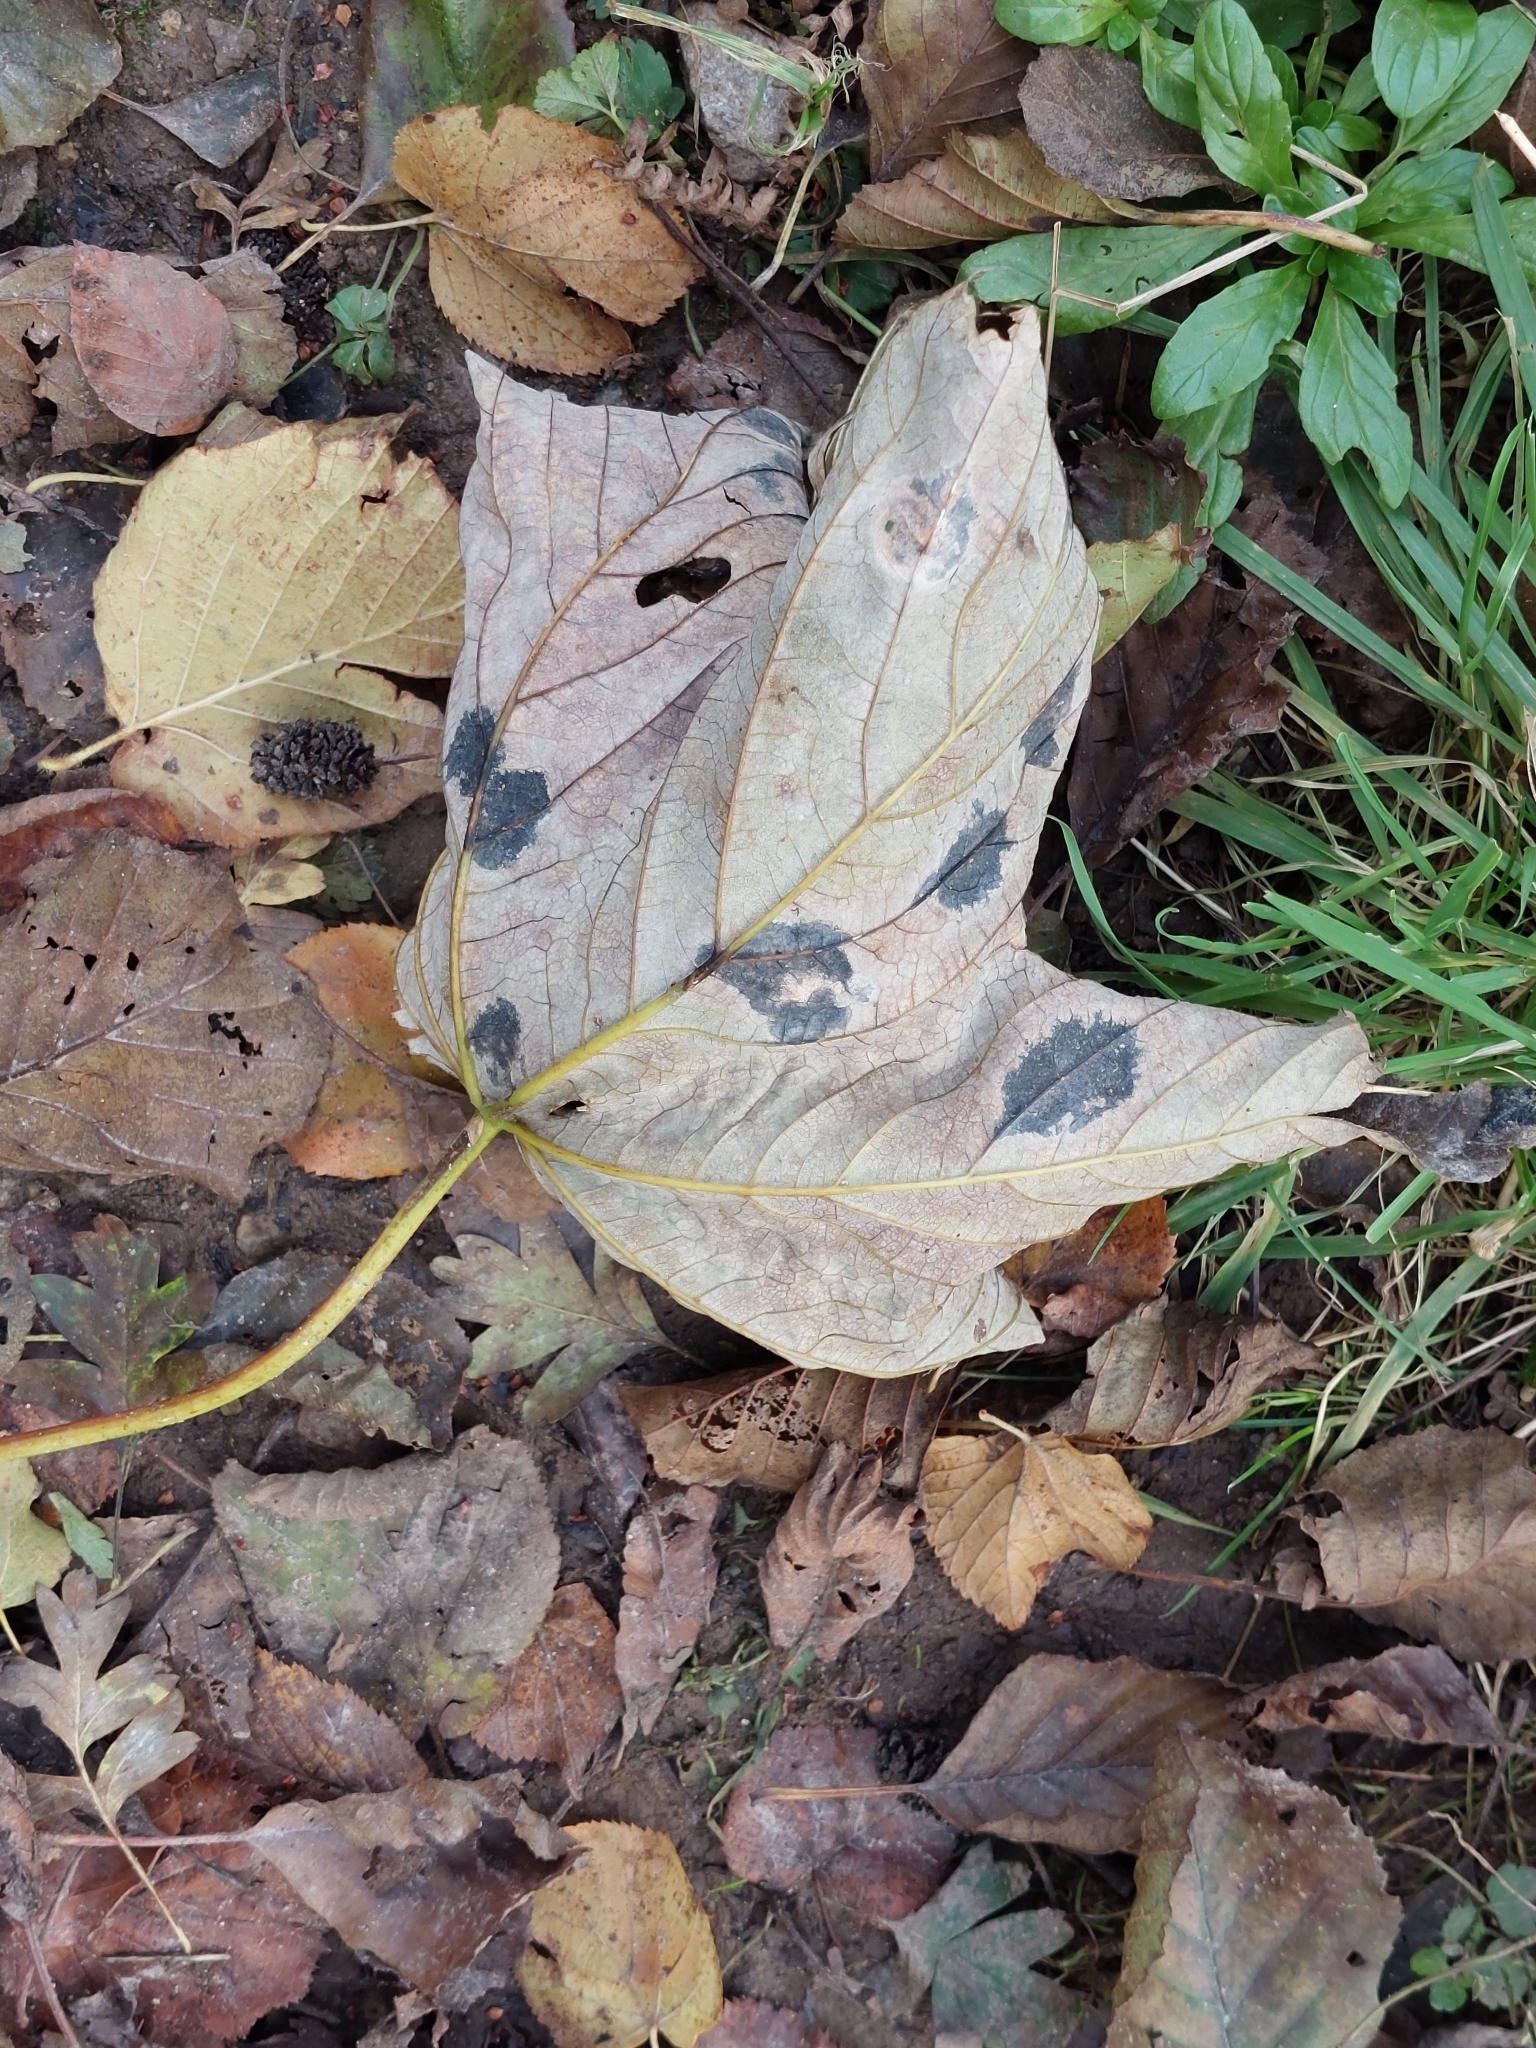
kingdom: Fungi
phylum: Ascomycota
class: Leotiomycetes
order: Rhytismatales
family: Rhytismataceae
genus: Rhytisma
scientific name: Rhytisma acerinum
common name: European tar spot
